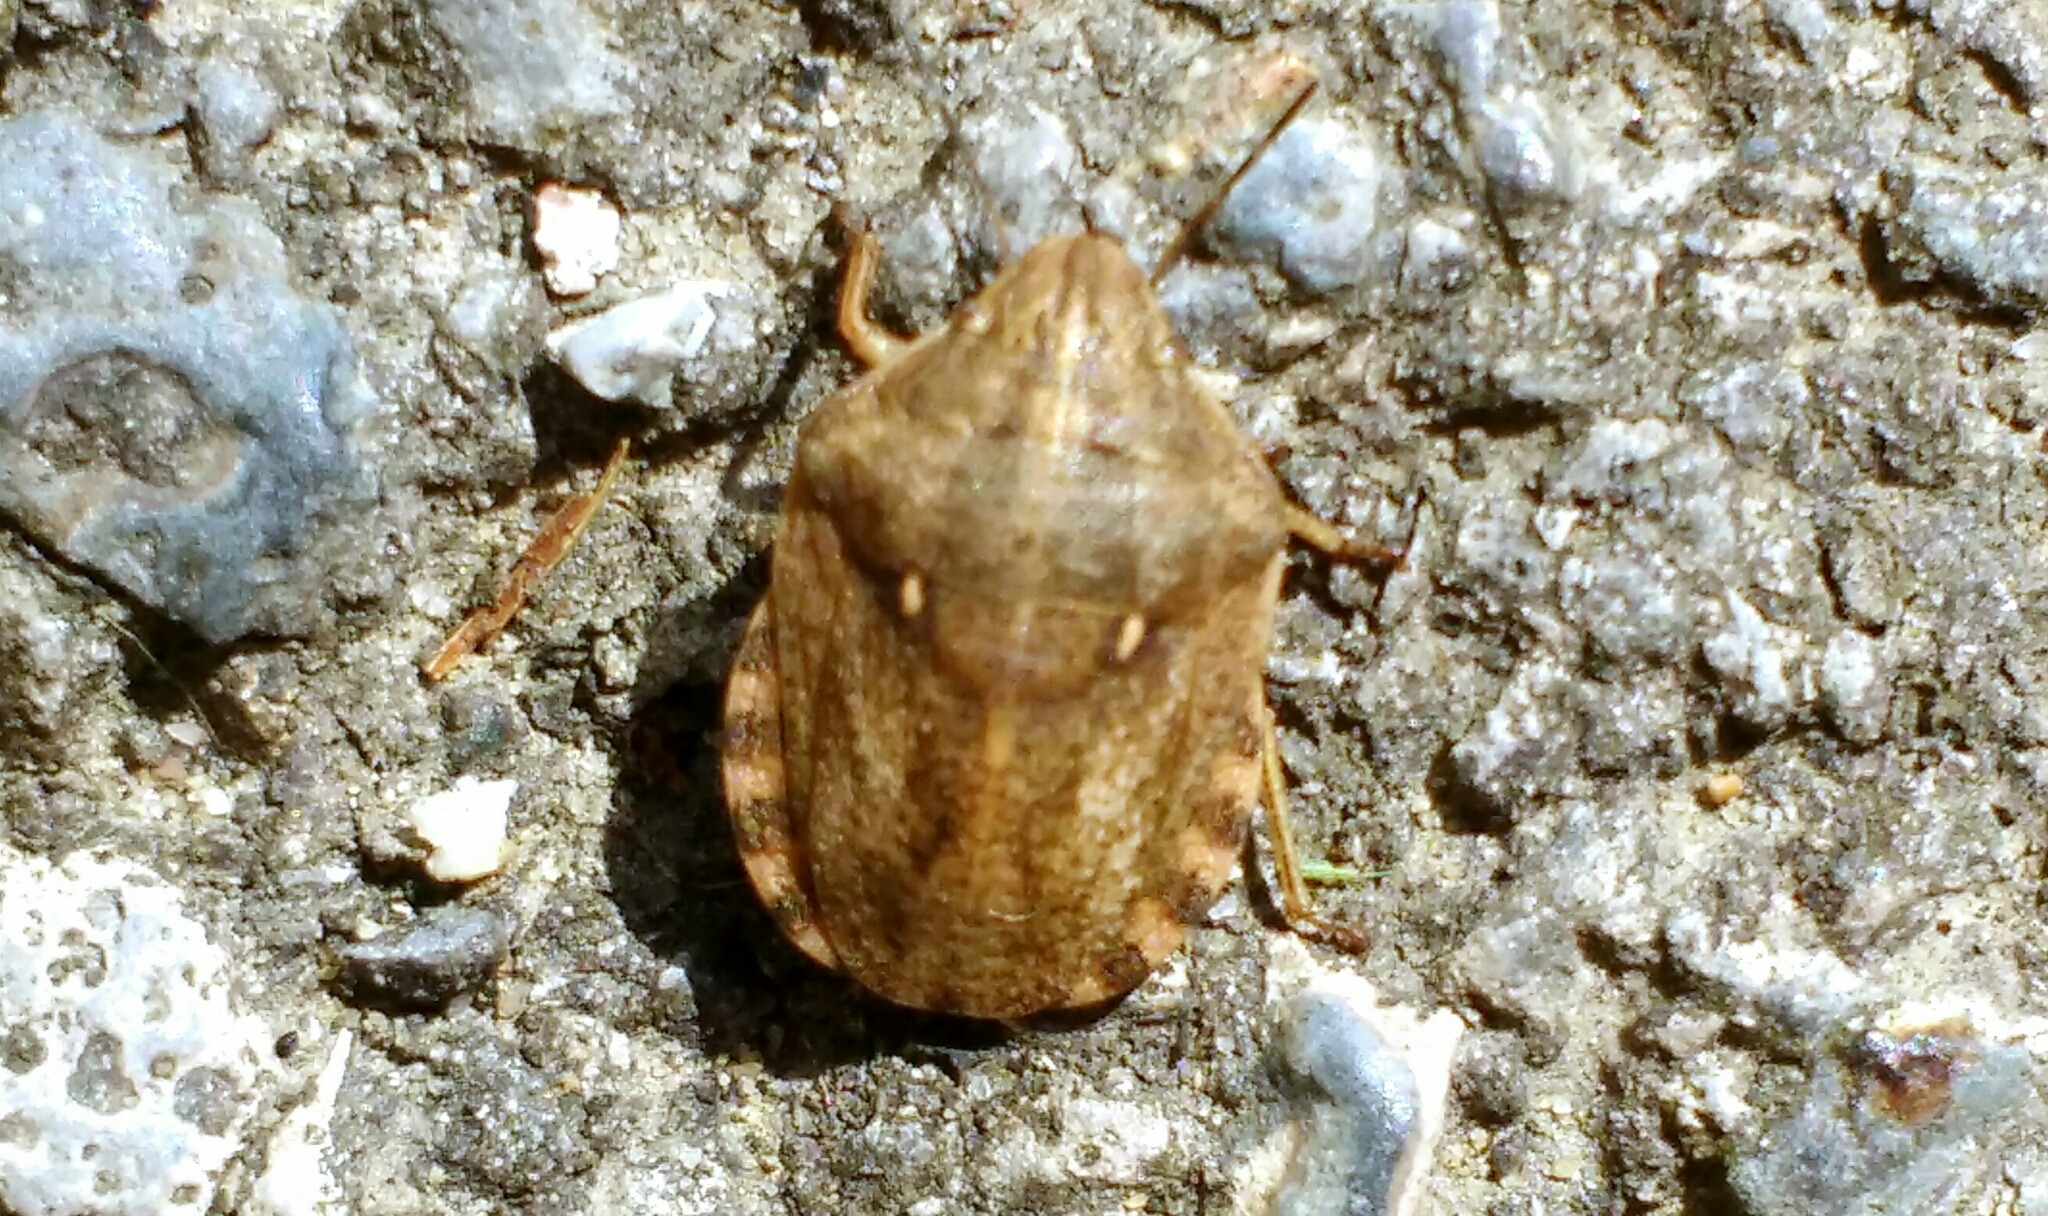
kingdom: Animalia
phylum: Arthropoda
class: Insecta
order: Hemiptera
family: Scutelleridae
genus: Eurygaster
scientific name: Eurygaster maura
